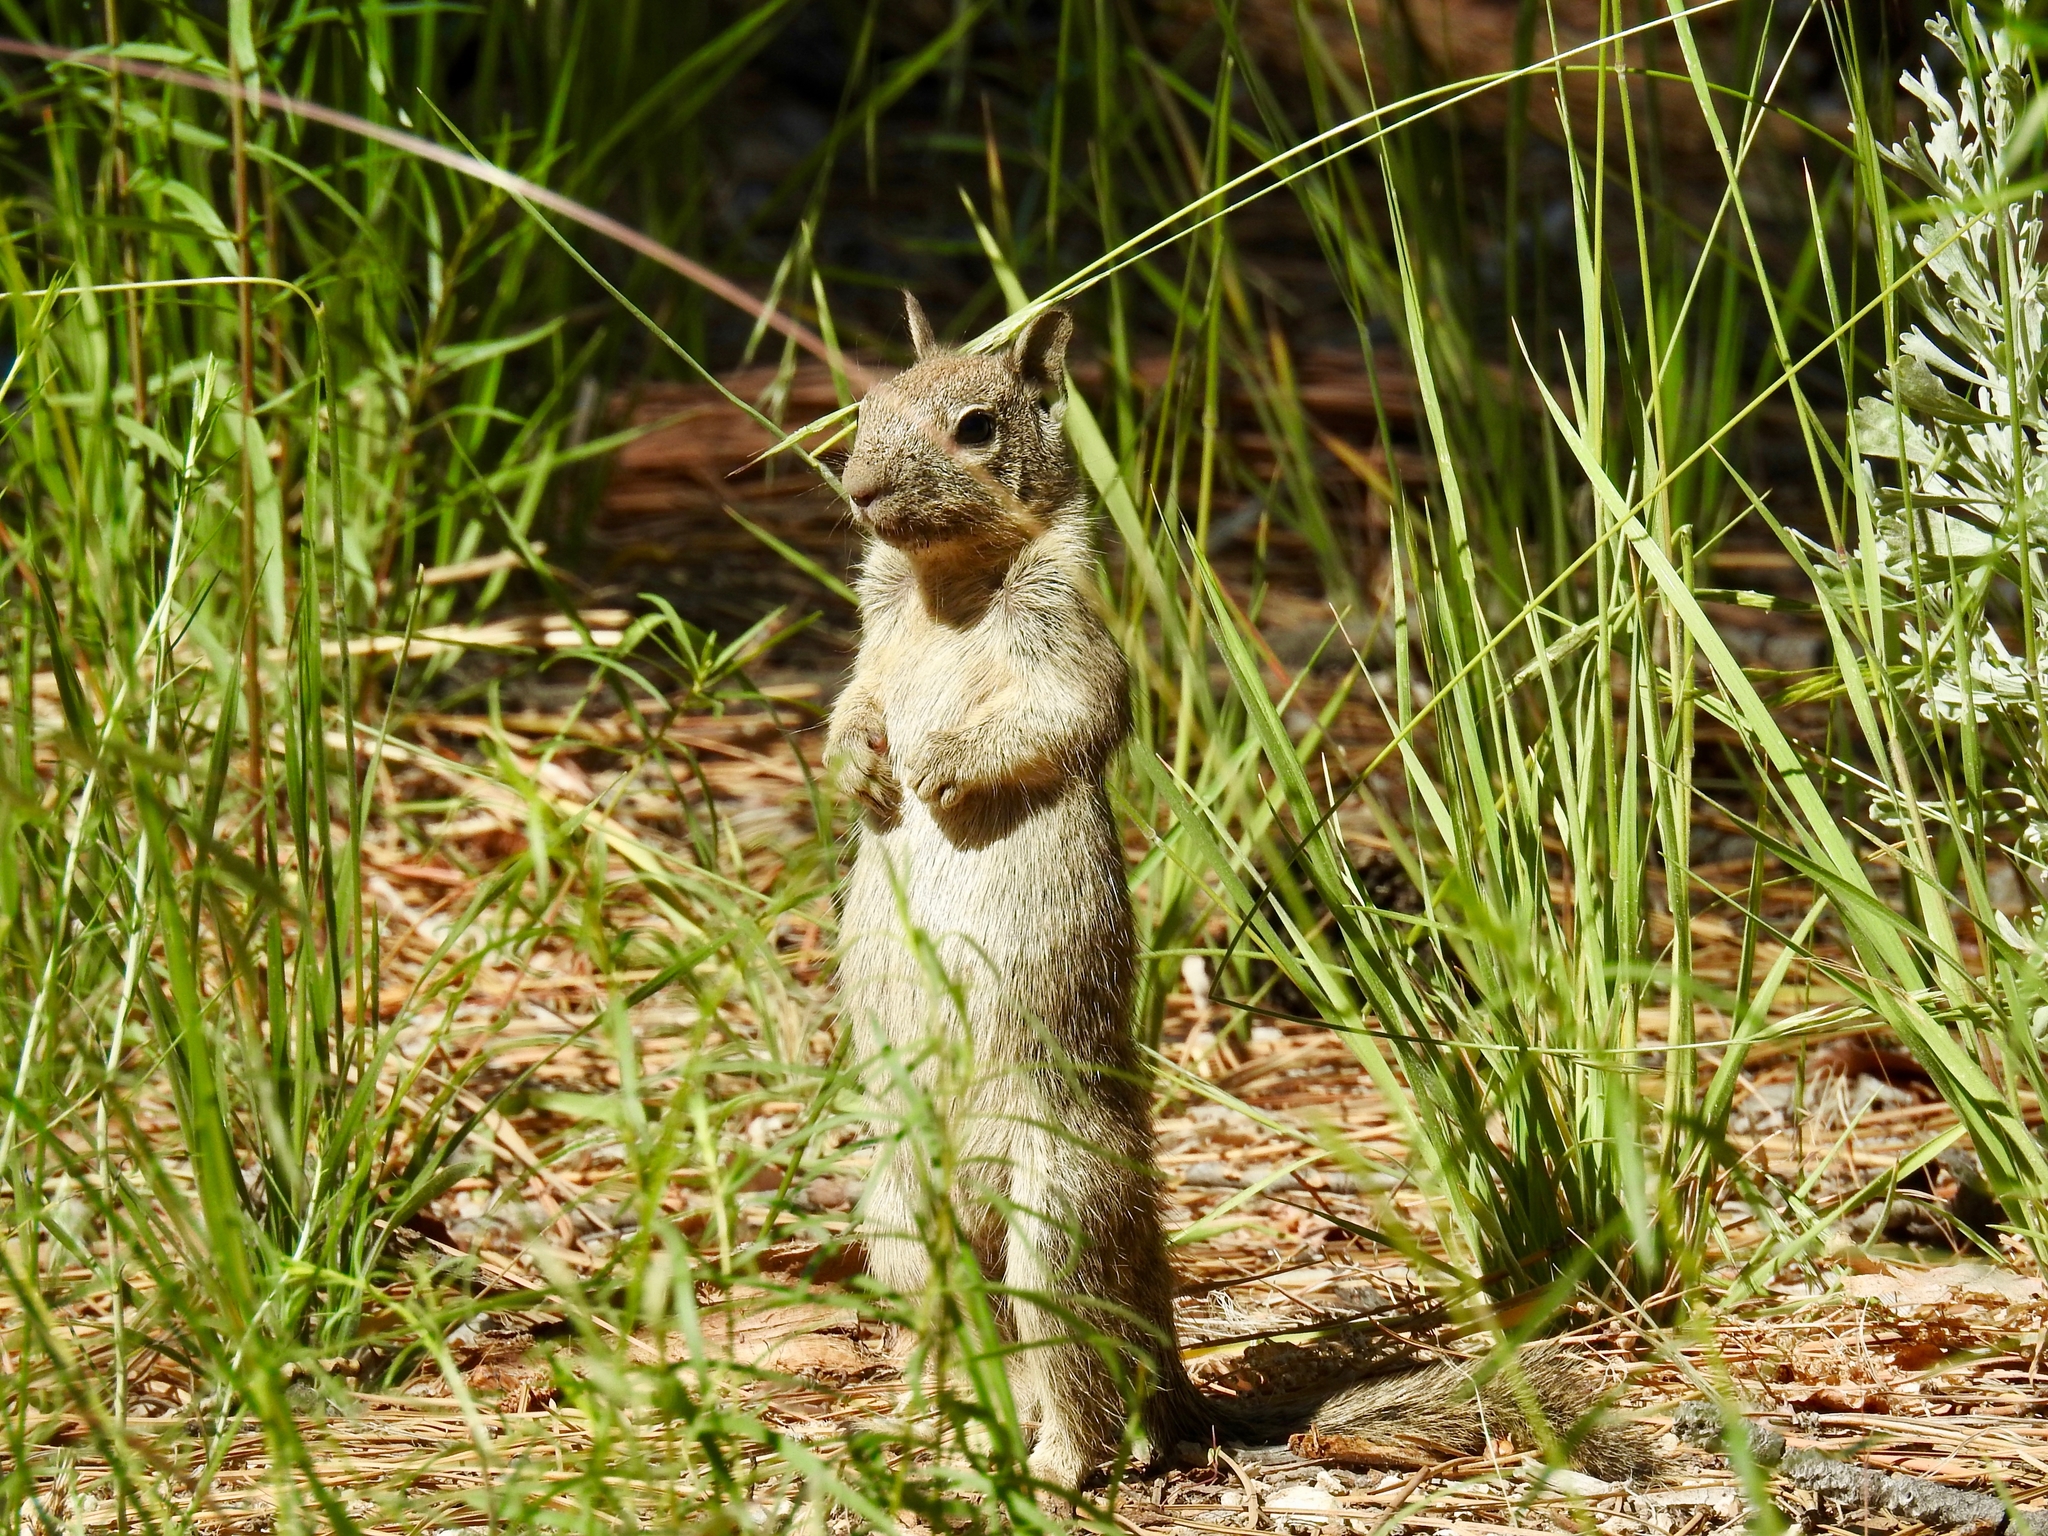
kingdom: Animalia
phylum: Chordata
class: Mammalia
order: Rodentia
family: Sciuridae
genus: Otospermophilus
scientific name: Otospermophilus beecheyi
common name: California ground squirrel
